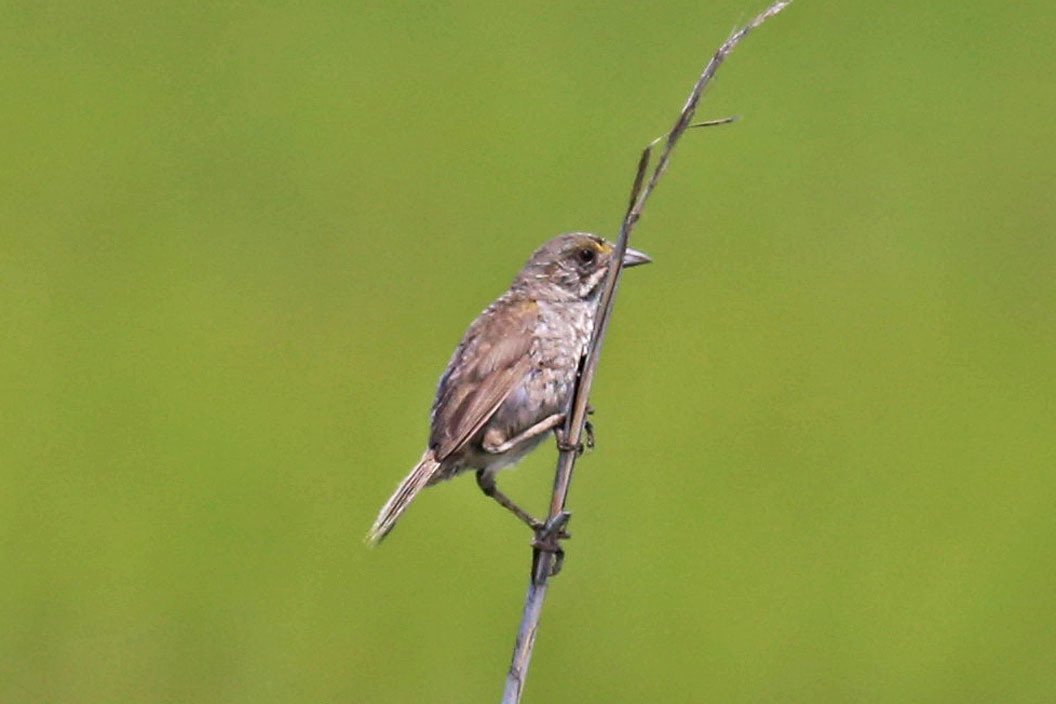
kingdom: Animalia
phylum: Chordata
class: Aves
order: Passeriformes
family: Passerellidae
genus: Ammospiza
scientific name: Ammospiza maritima
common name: Seaside sparrow
